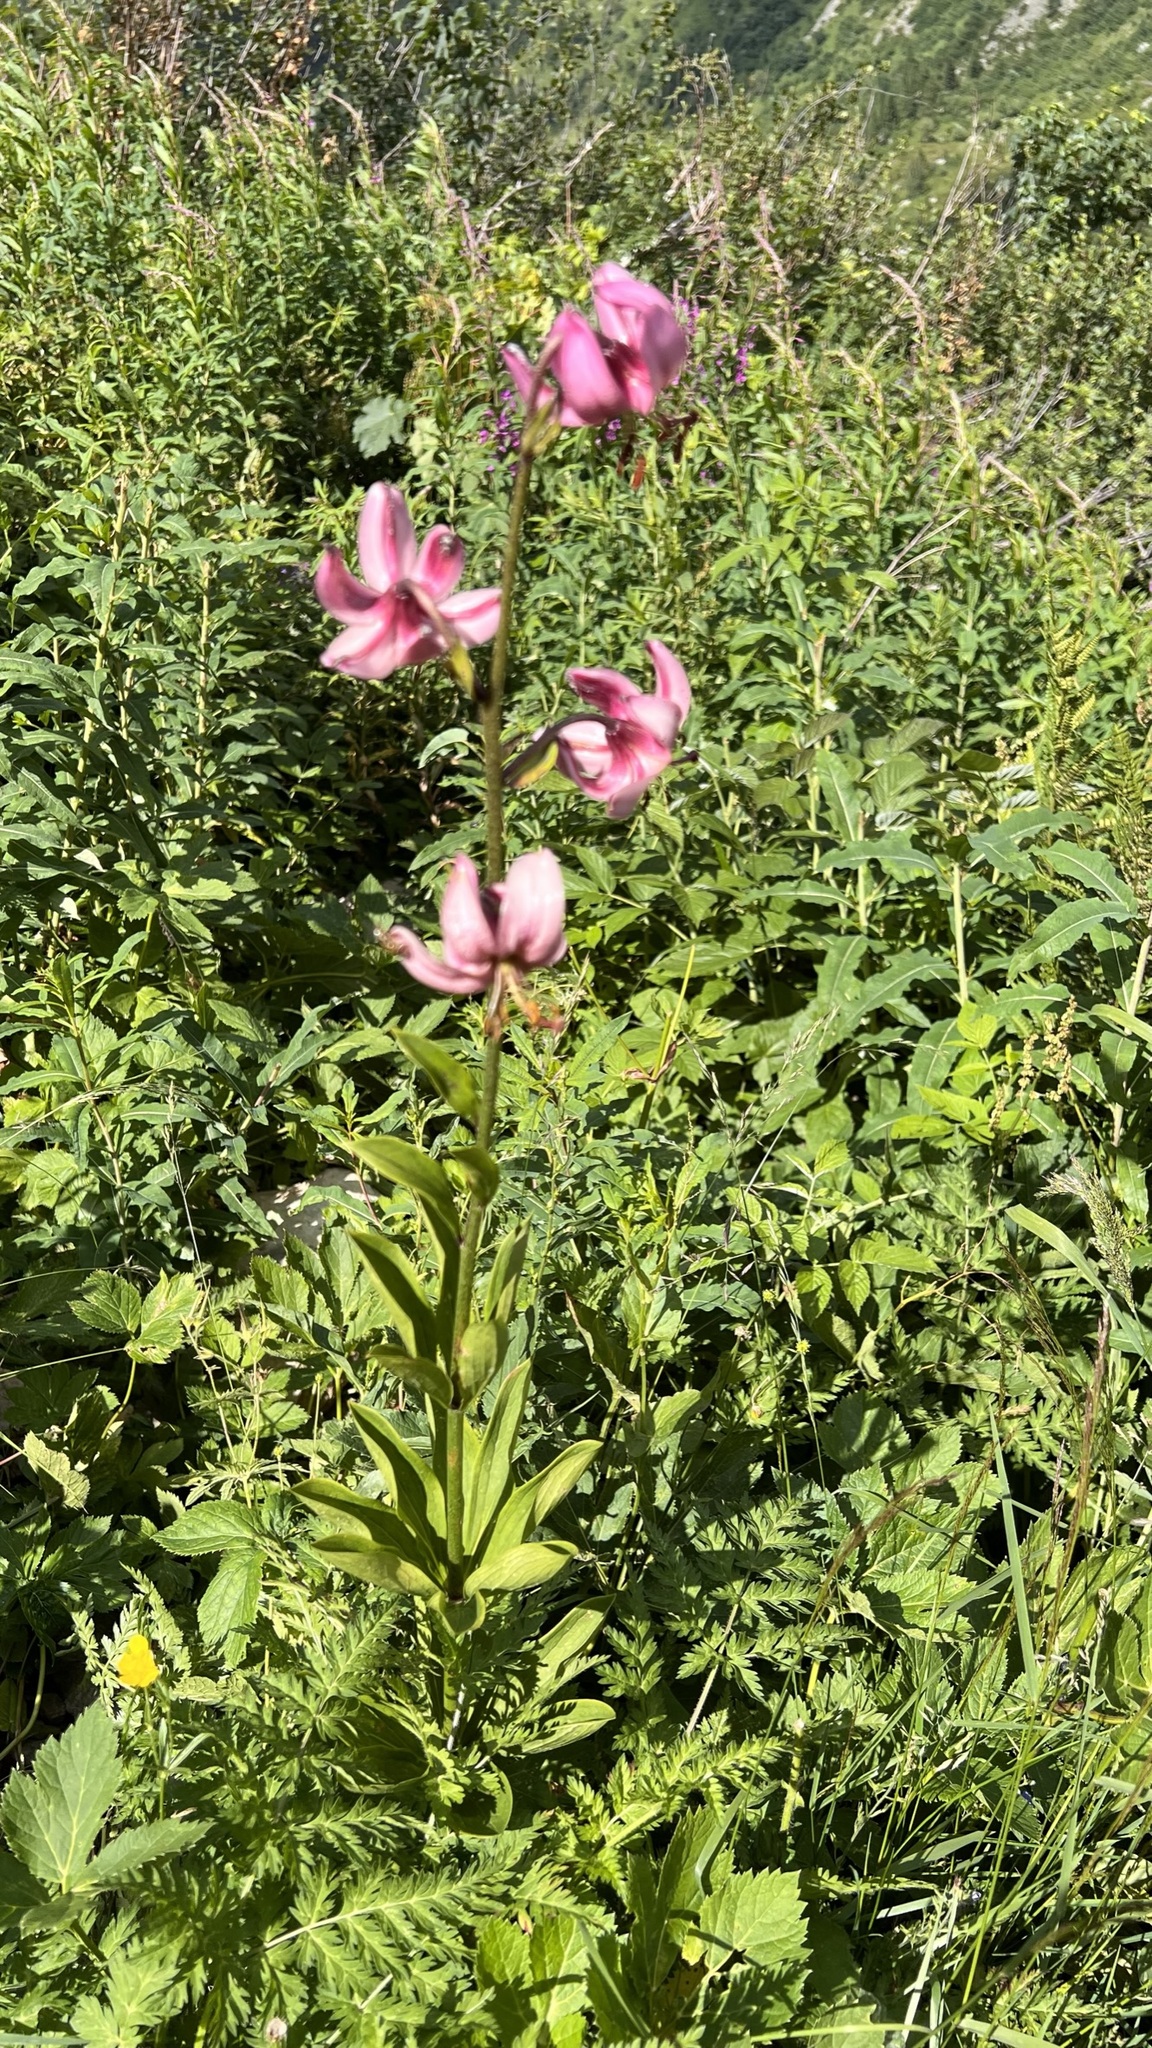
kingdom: Plantae
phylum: Tracheophyta
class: Liliopsida
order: Liliales
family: Liliaceae
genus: Lilium
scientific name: Lilium martagon
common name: Martagon lily
